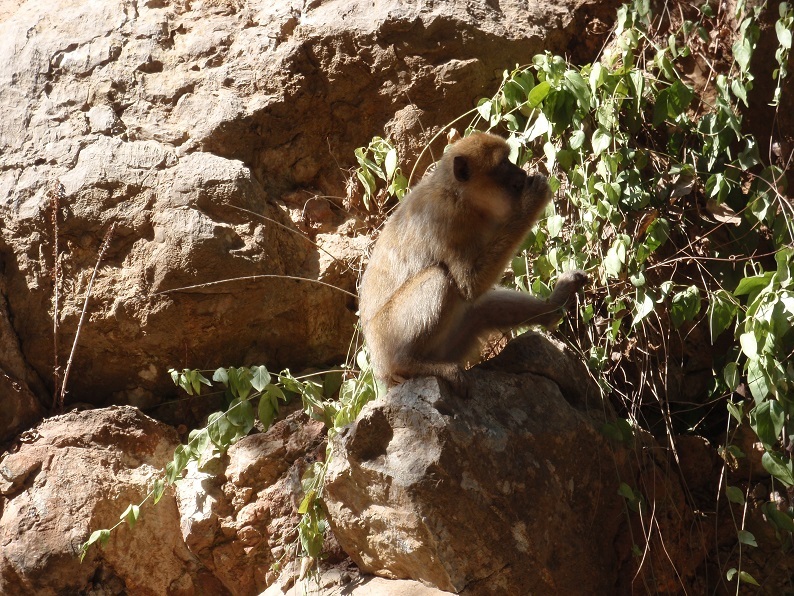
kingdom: Animalia
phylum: Chordata
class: Mammalia
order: Primates
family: Cercopithecidae
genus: Macaca
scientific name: Macaca sylvanus
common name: Barbary macaque
